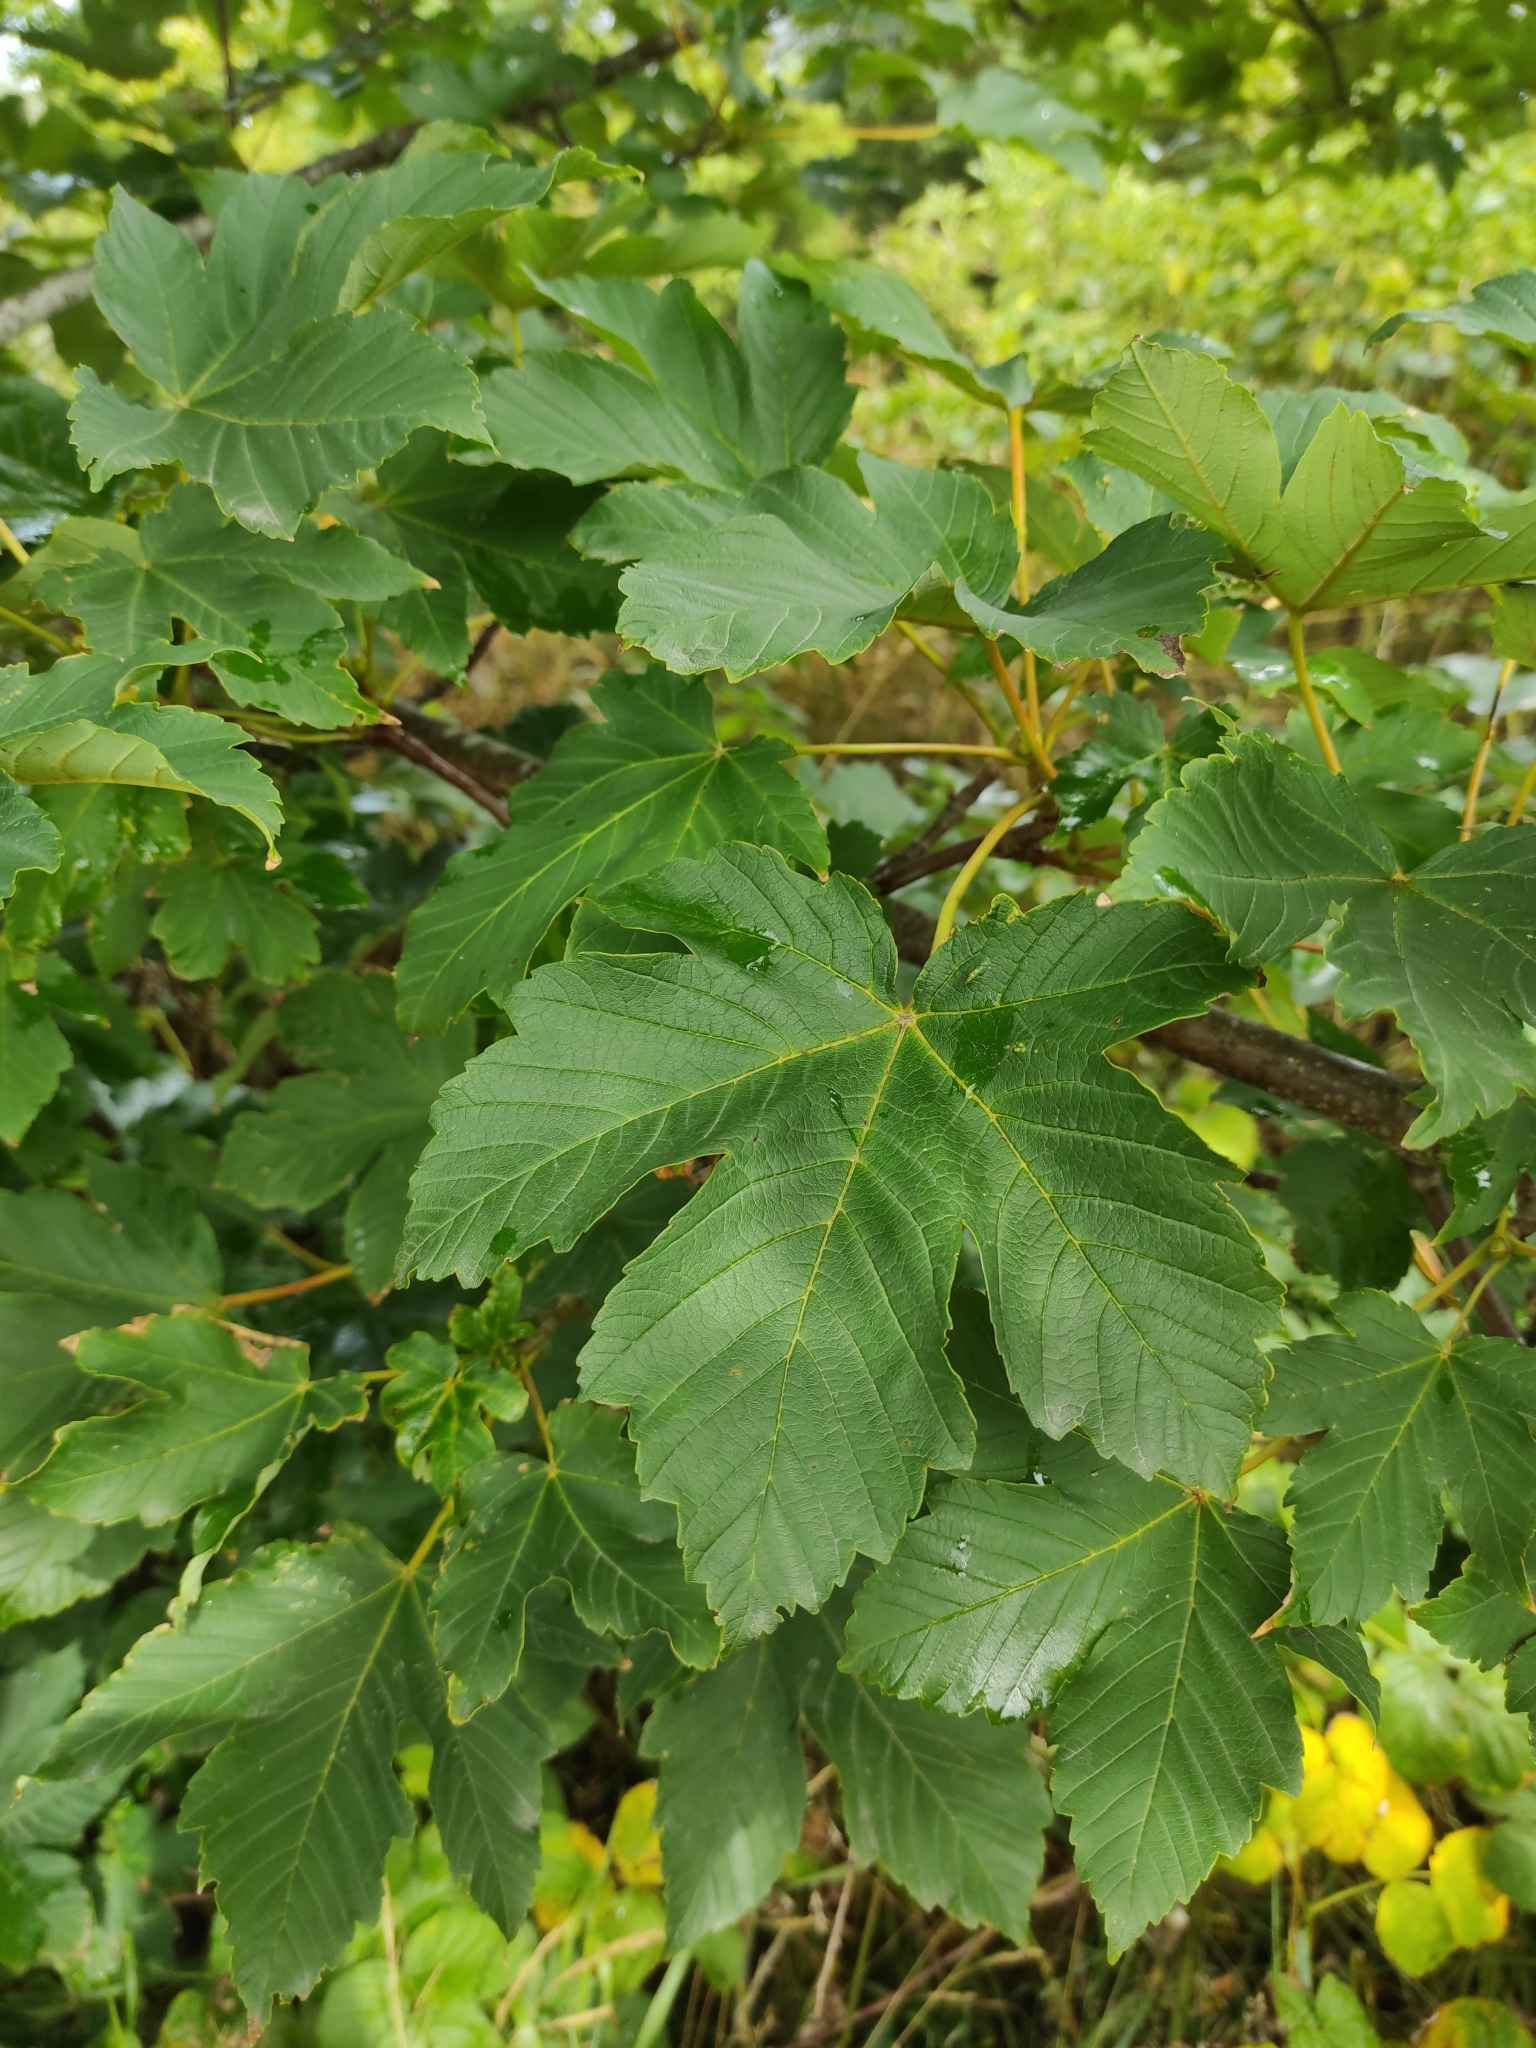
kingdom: Plantae
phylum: Tracheophyta
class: Magnoliopsida
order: Sapindales
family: Sapindaceae
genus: Acer
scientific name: Acer pseudoplatanus
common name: Sycamore
